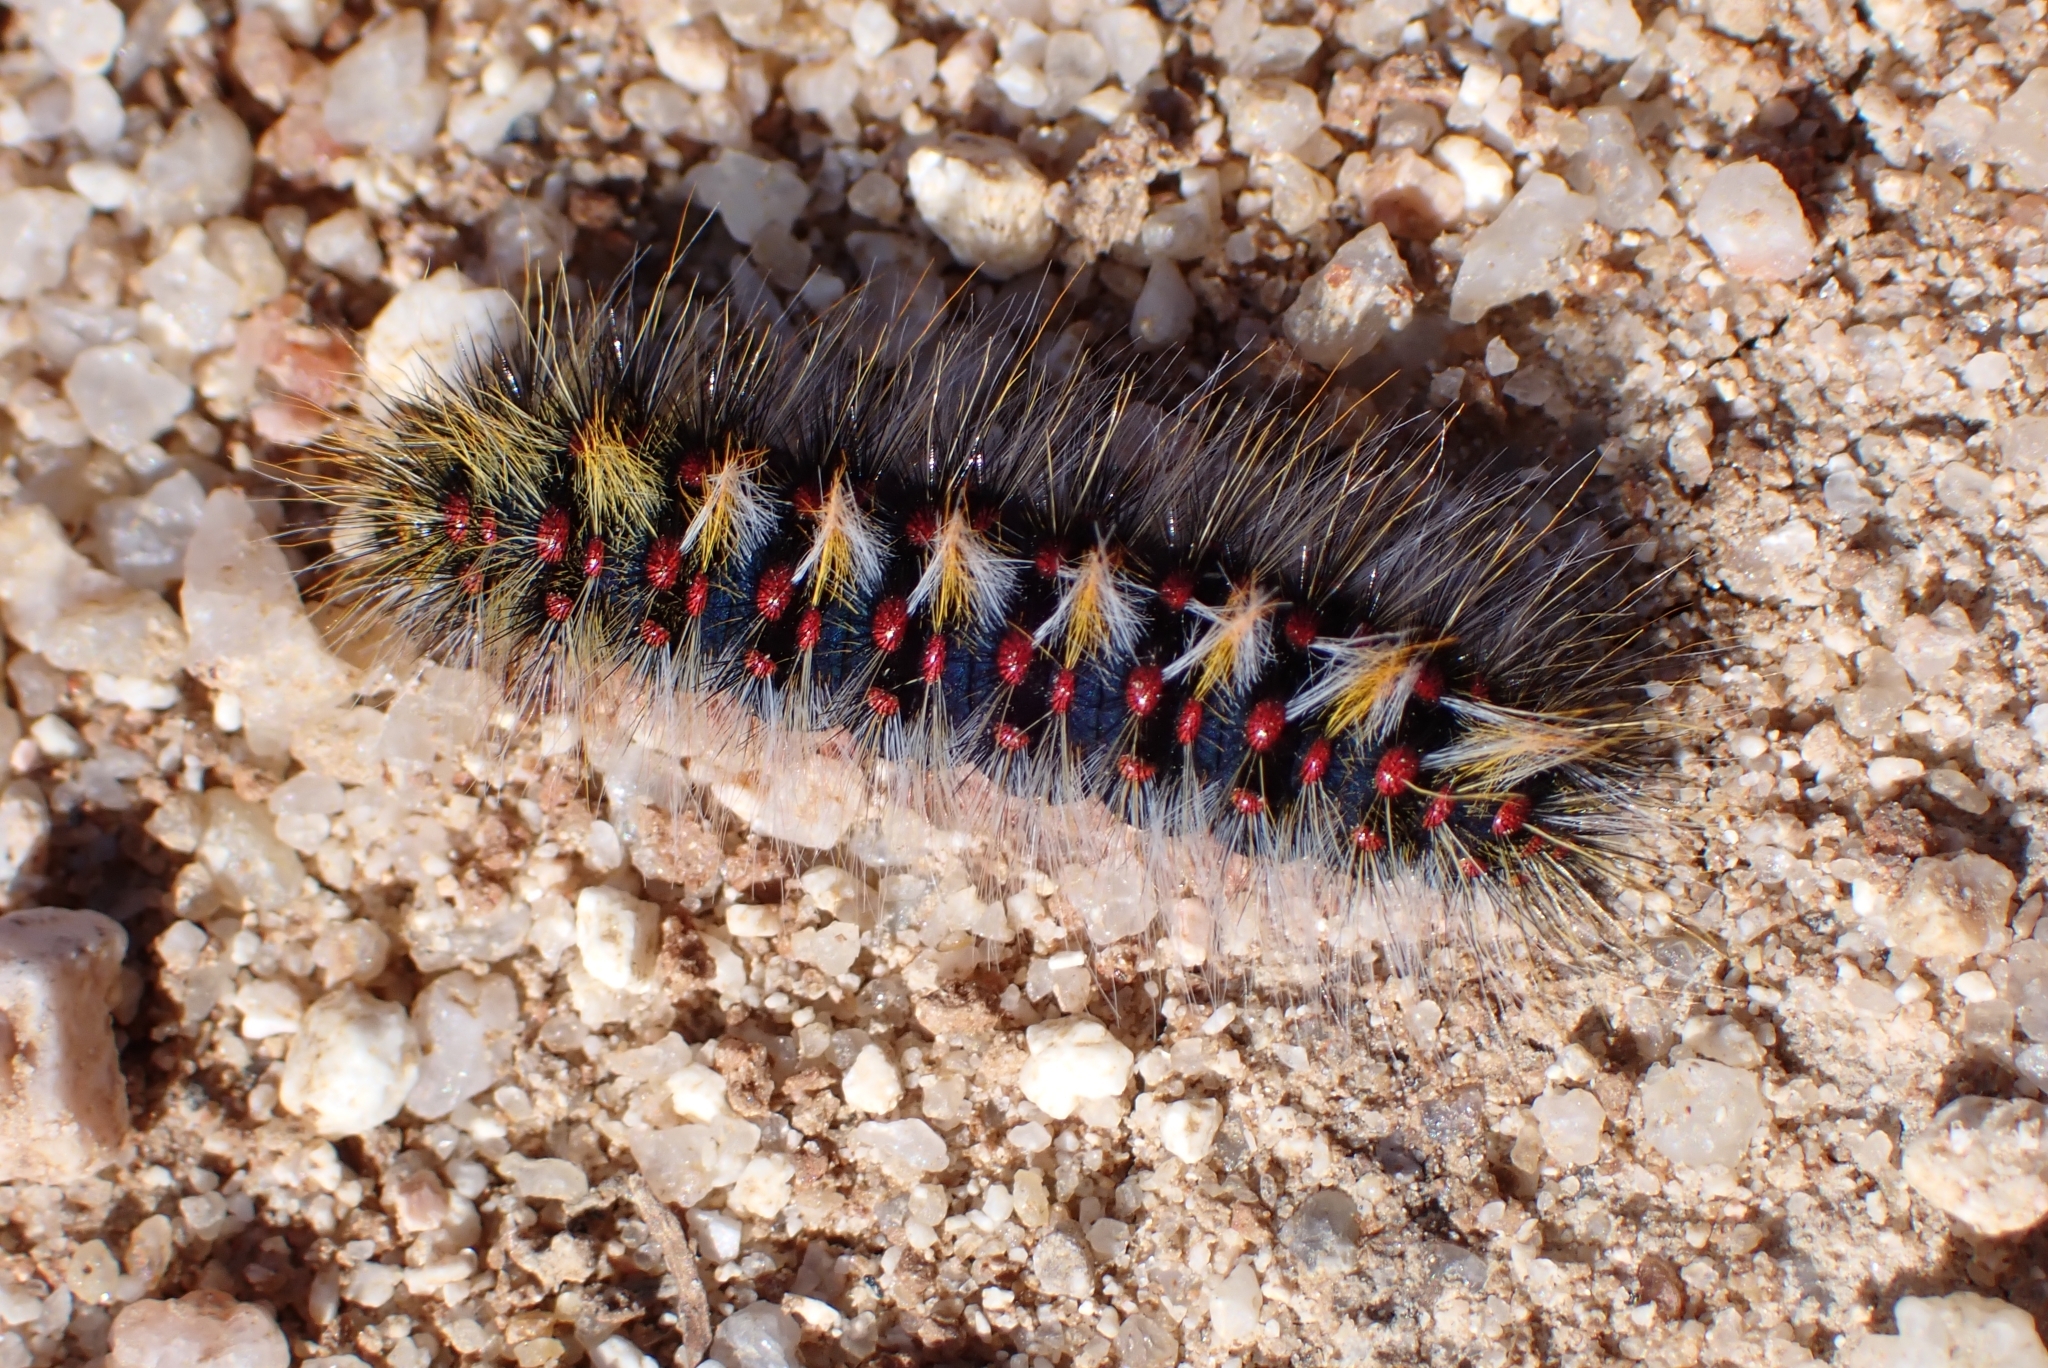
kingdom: Animalia
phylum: Arthropoda
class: Insecta
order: Lepidoptera
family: Lasiocampidae
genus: Chondrostega
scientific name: Chondrostega vandalicia
